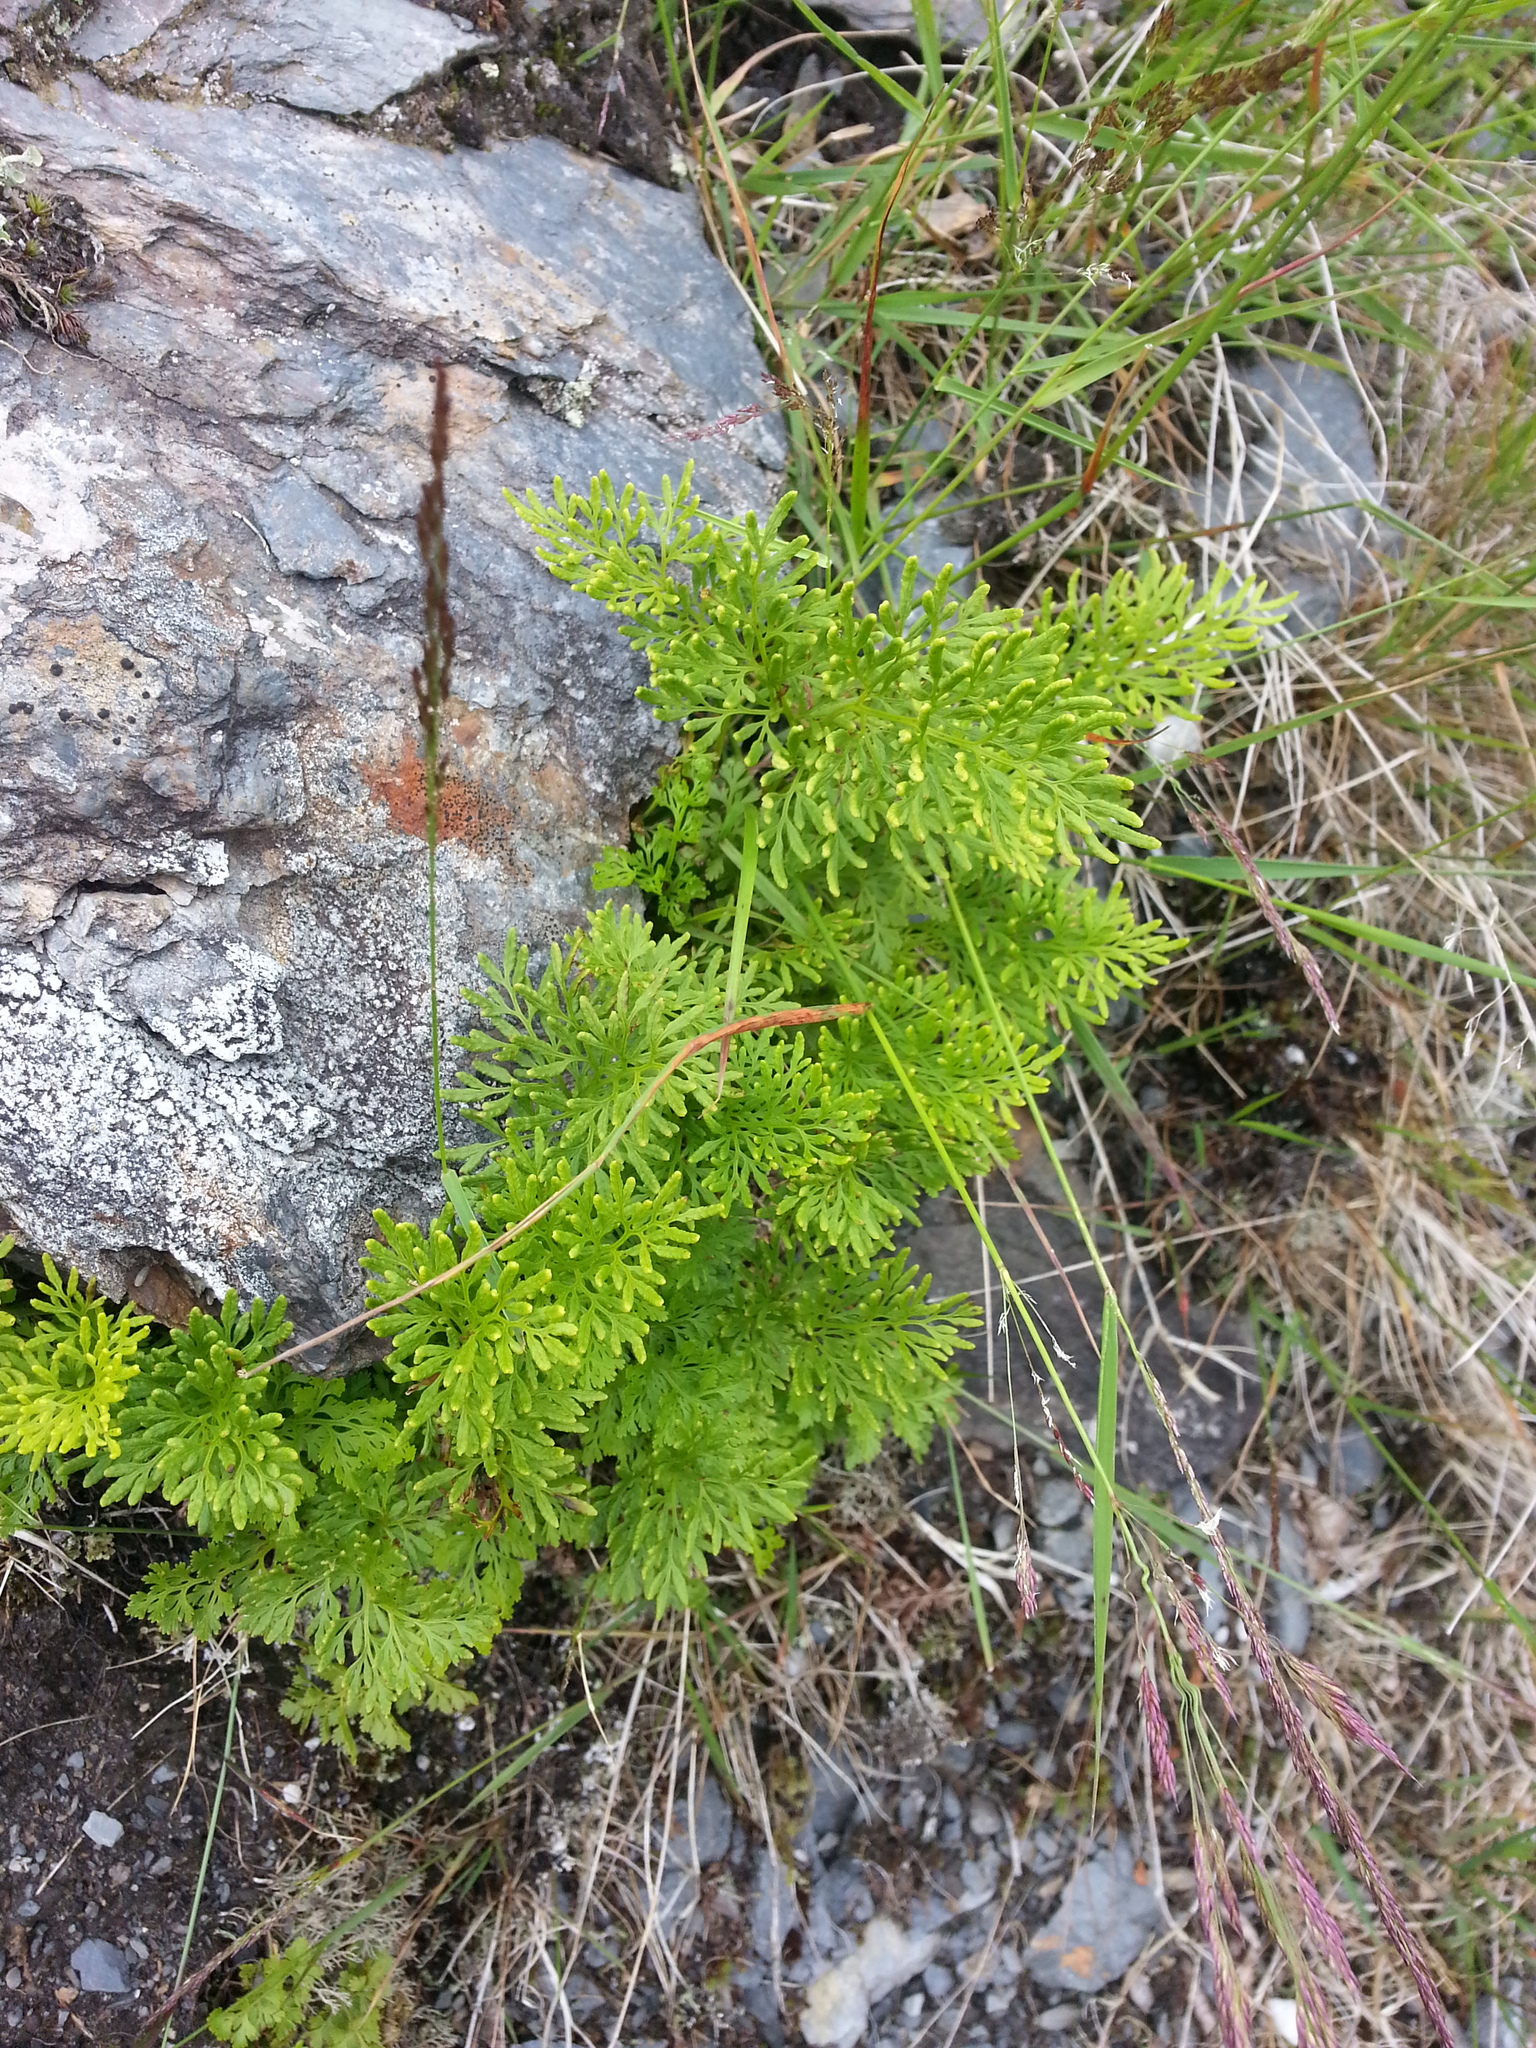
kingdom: Plantae
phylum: Tracheophyta
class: Polypodiopsida
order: Polypodiales
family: Pteridaceae
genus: Cryptogramma
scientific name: Cryptogramma crispa
